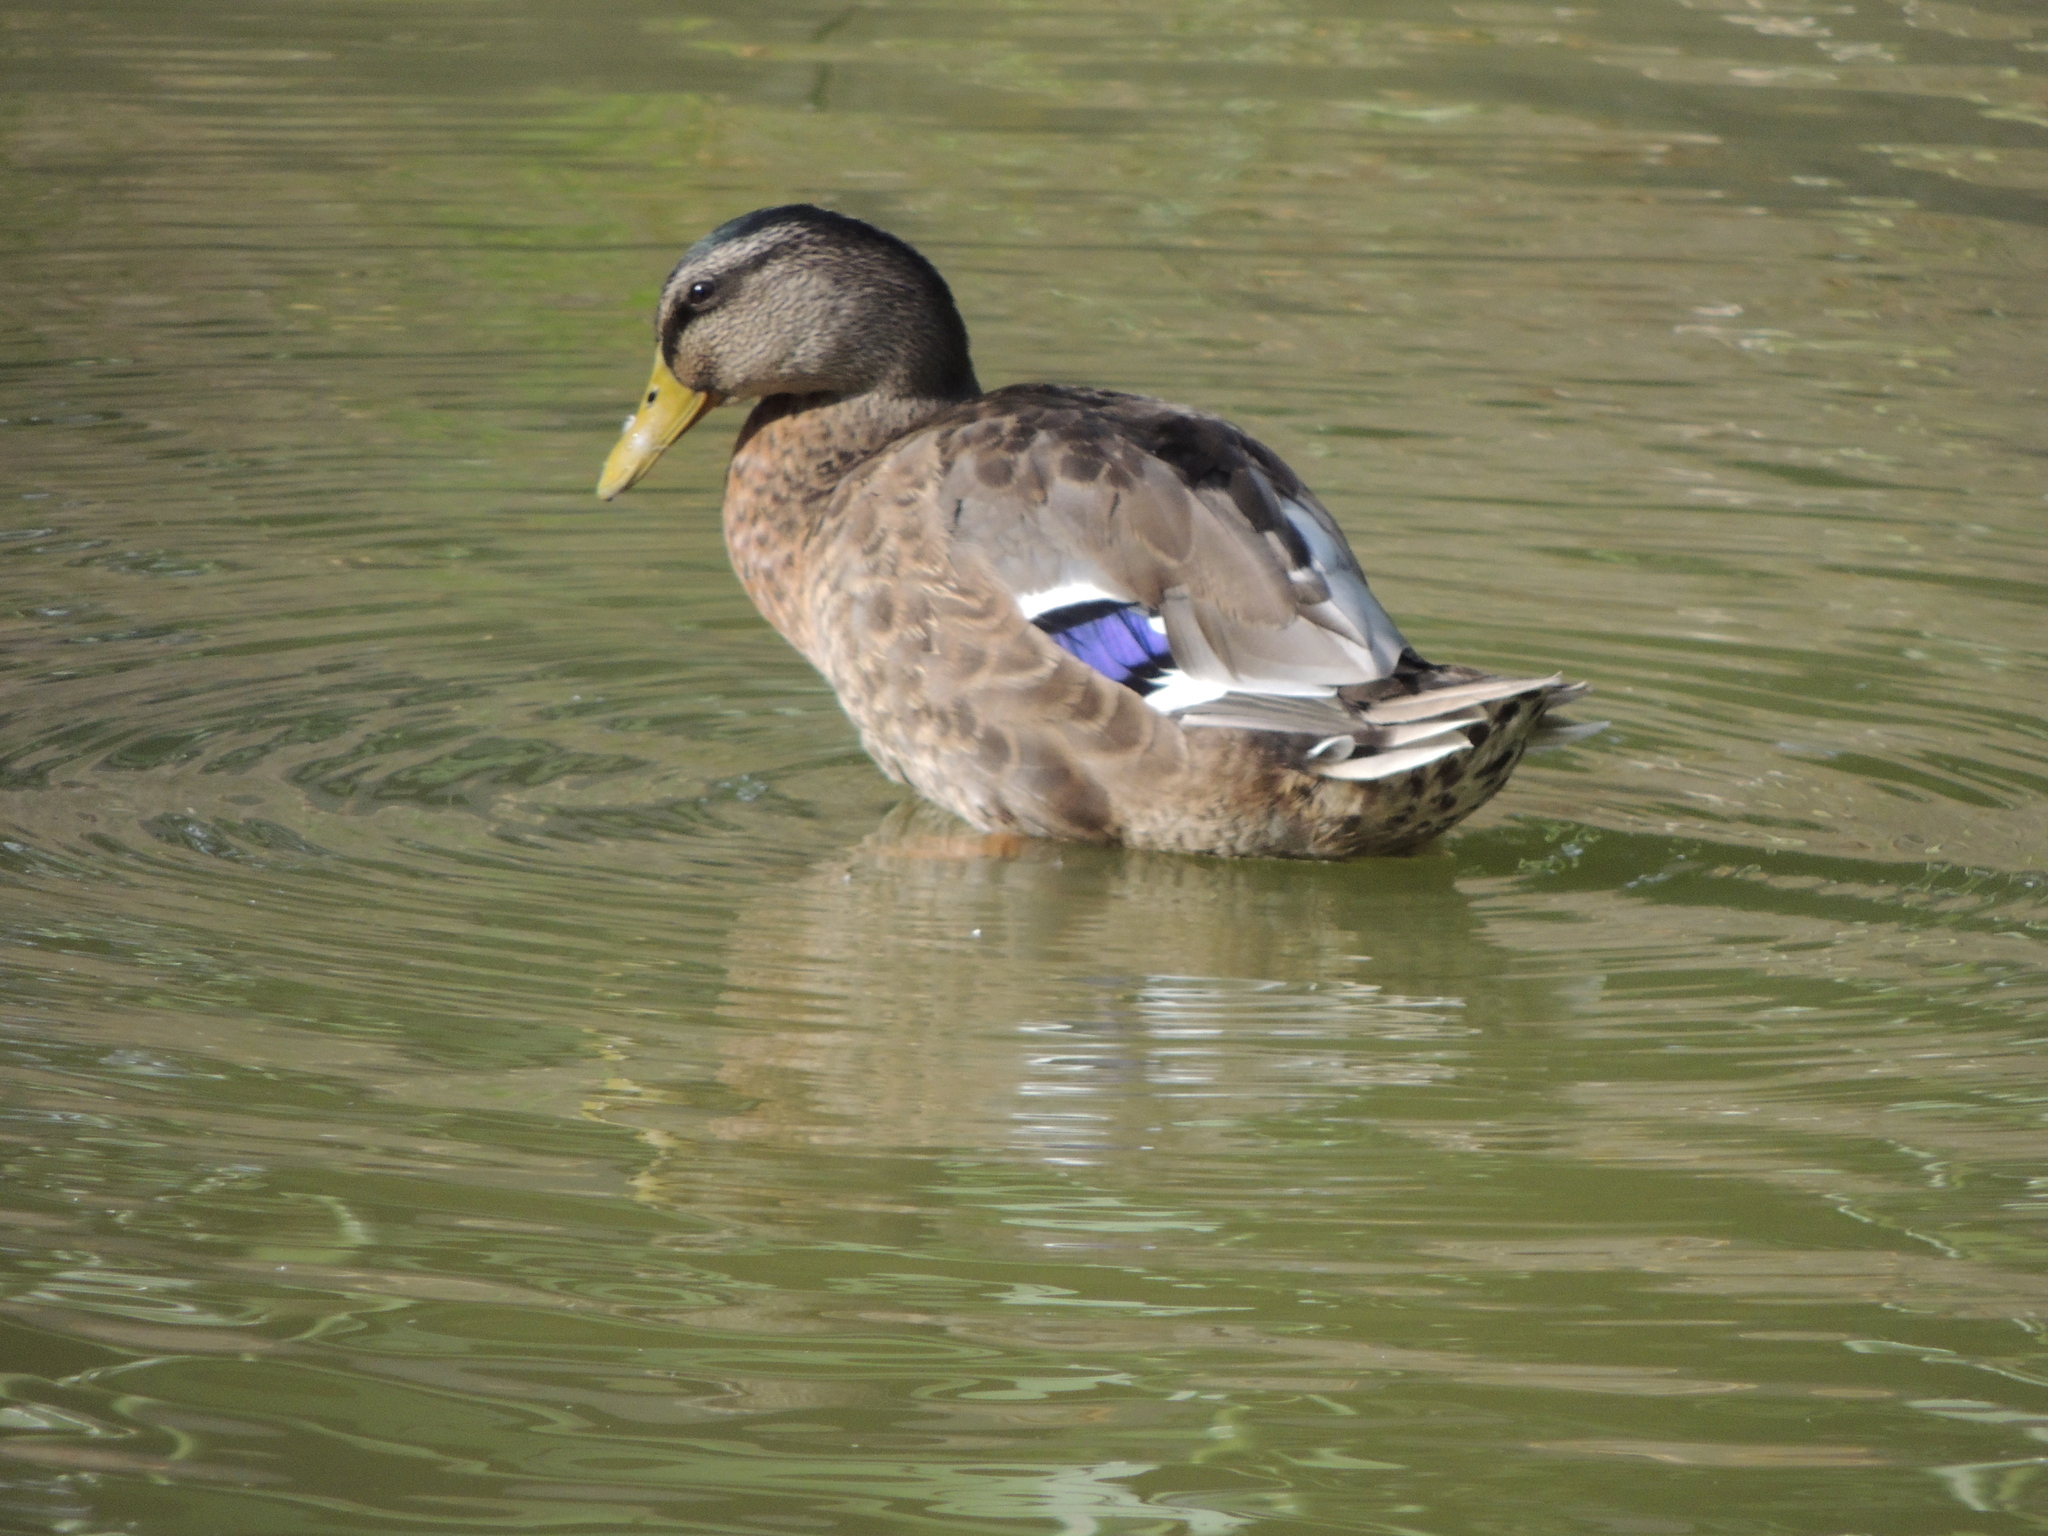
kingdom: Animalia
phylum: Chordata
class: Aves
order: Anseriformes
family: Anatidae
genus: Anas
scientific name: Anas platyrhynchos
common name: Mallard
